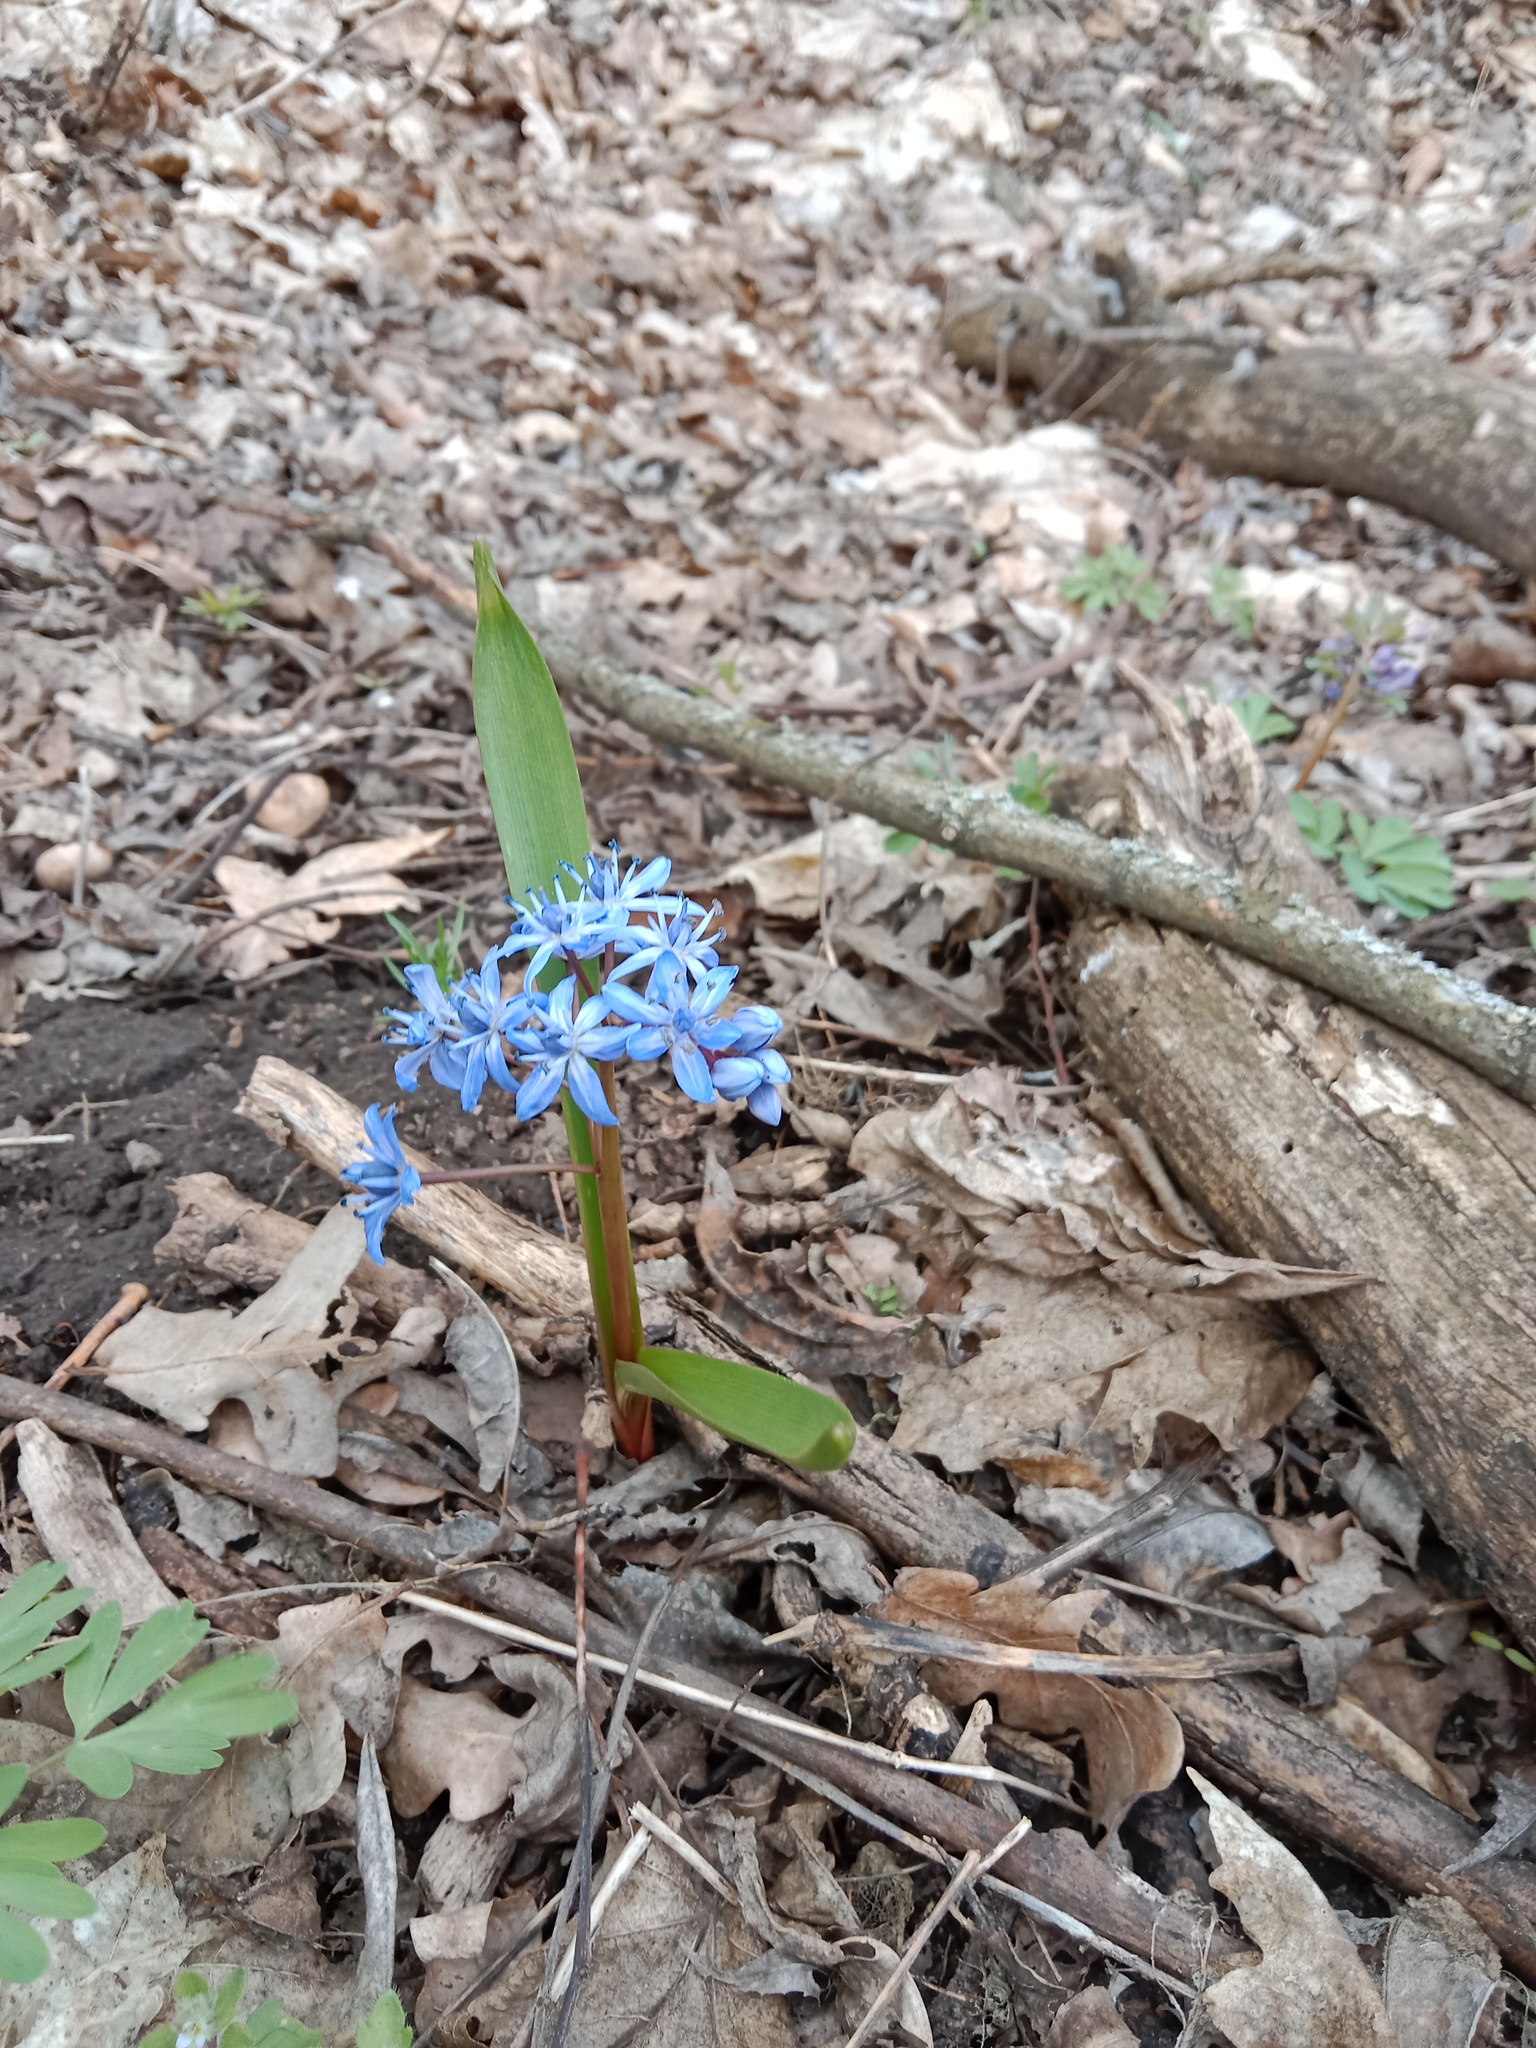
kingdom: Plantae
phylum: Tracheophyta
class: Liliopsida
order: Asparagales
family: Asparagaceae
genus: Scilla
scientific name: Scilla bifolia
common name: Alpine squill
